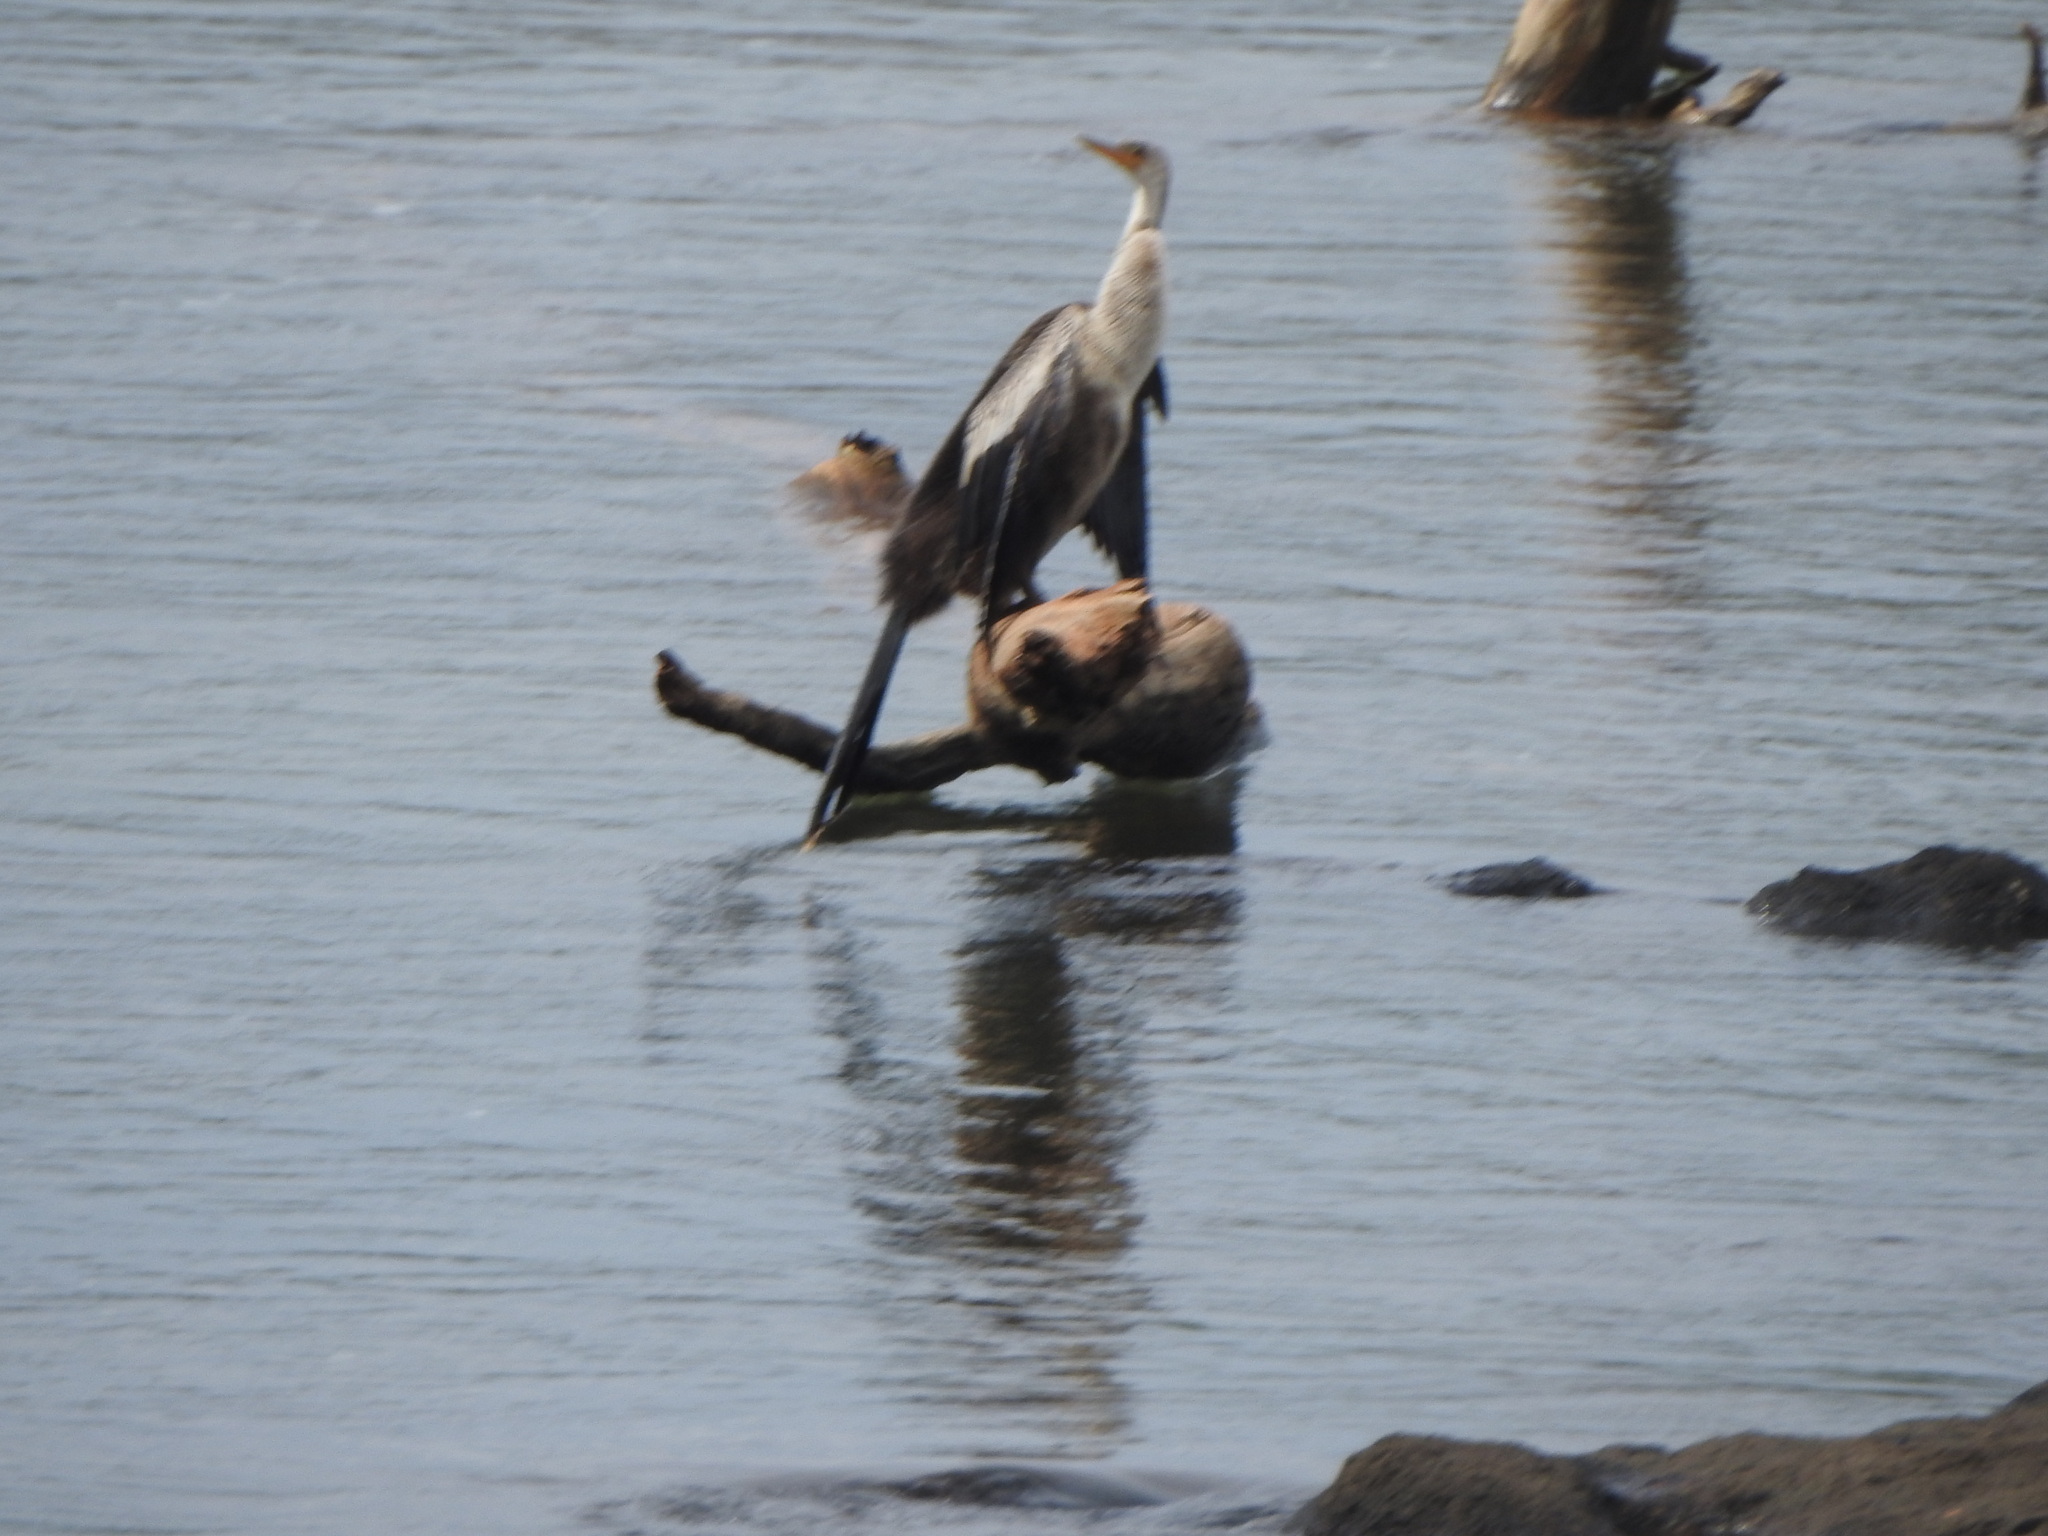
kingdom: Animalia
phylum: Chordata
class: Aves
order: Suliformes
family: Anhingidae
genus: Anhinga
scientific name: Anhinga anhinga
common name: Anhinga
